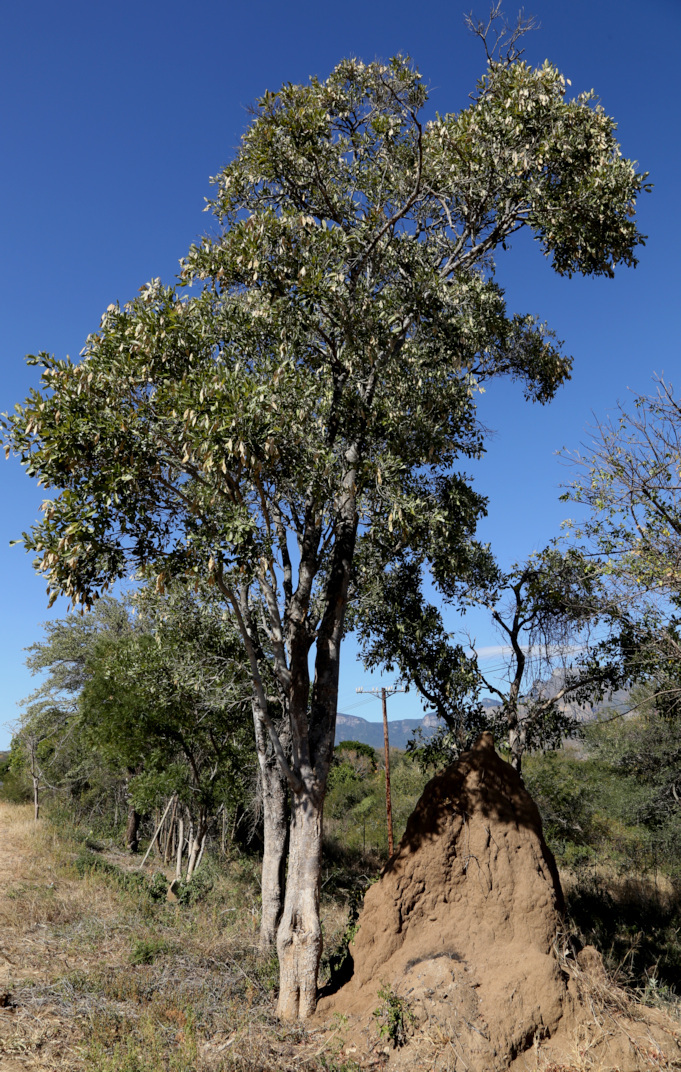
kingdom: Plantae
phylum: Tracheophyta
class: Magnoliopsida
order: Fabales
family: Fabaceae
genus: Philenoptera
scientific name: Philenoptera violacea
